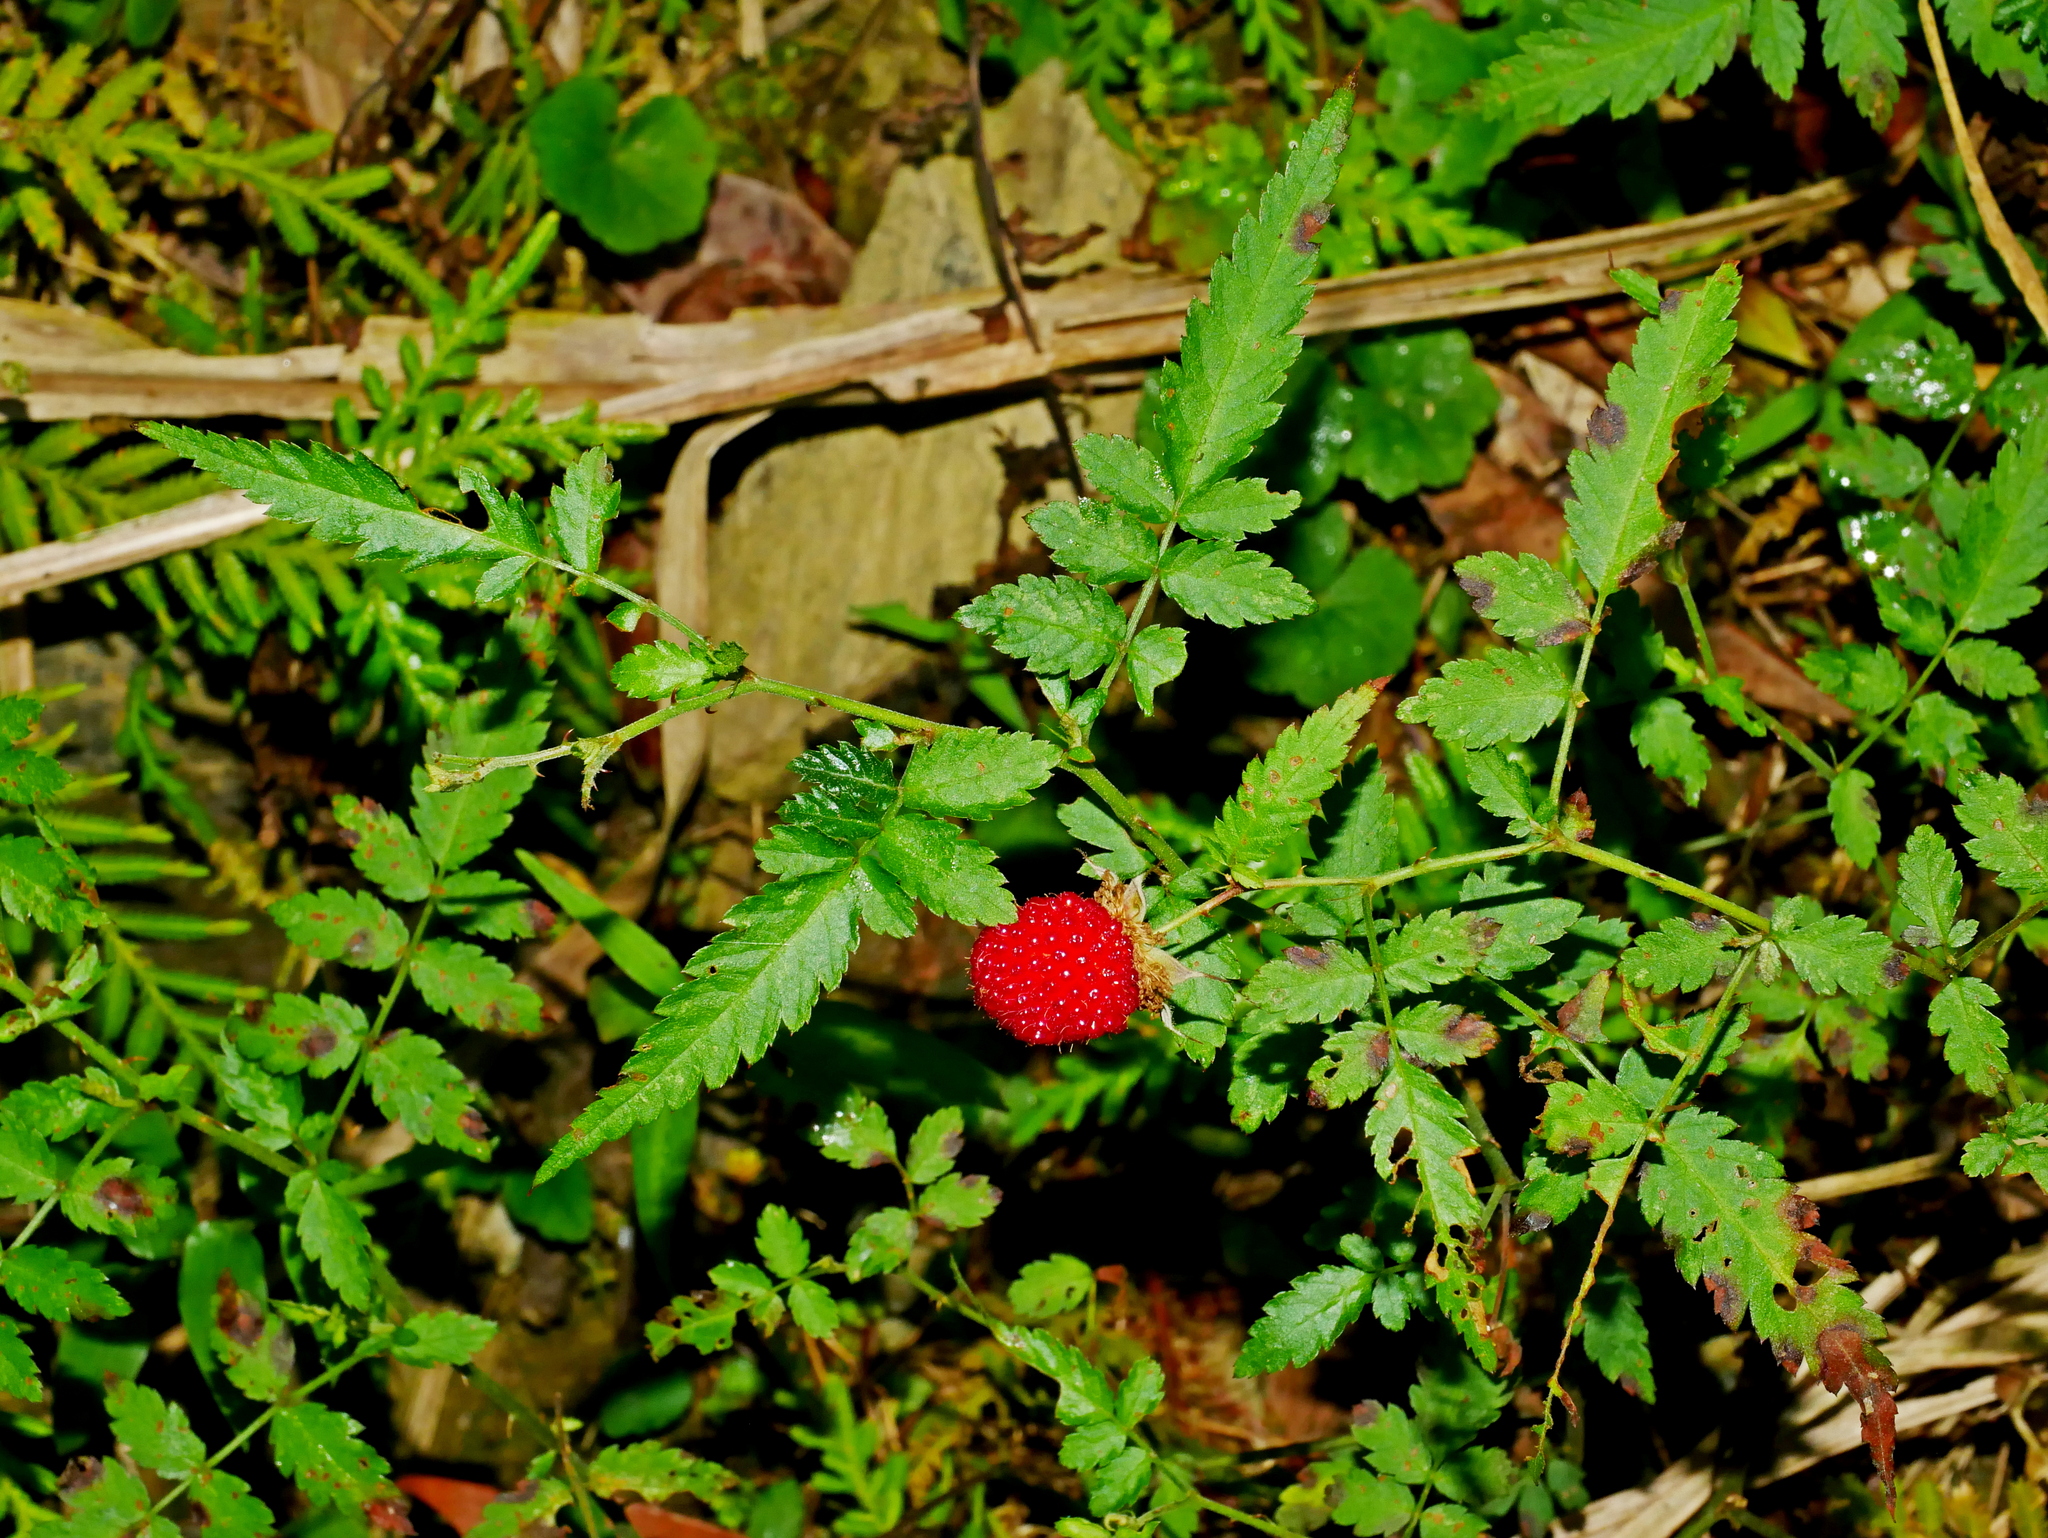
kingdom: Plantae
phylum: Tracheophyta
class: Magnoliopsida
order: Rosales
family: Rosaceae
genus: Rubus
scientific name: Rubus croceacanthus
